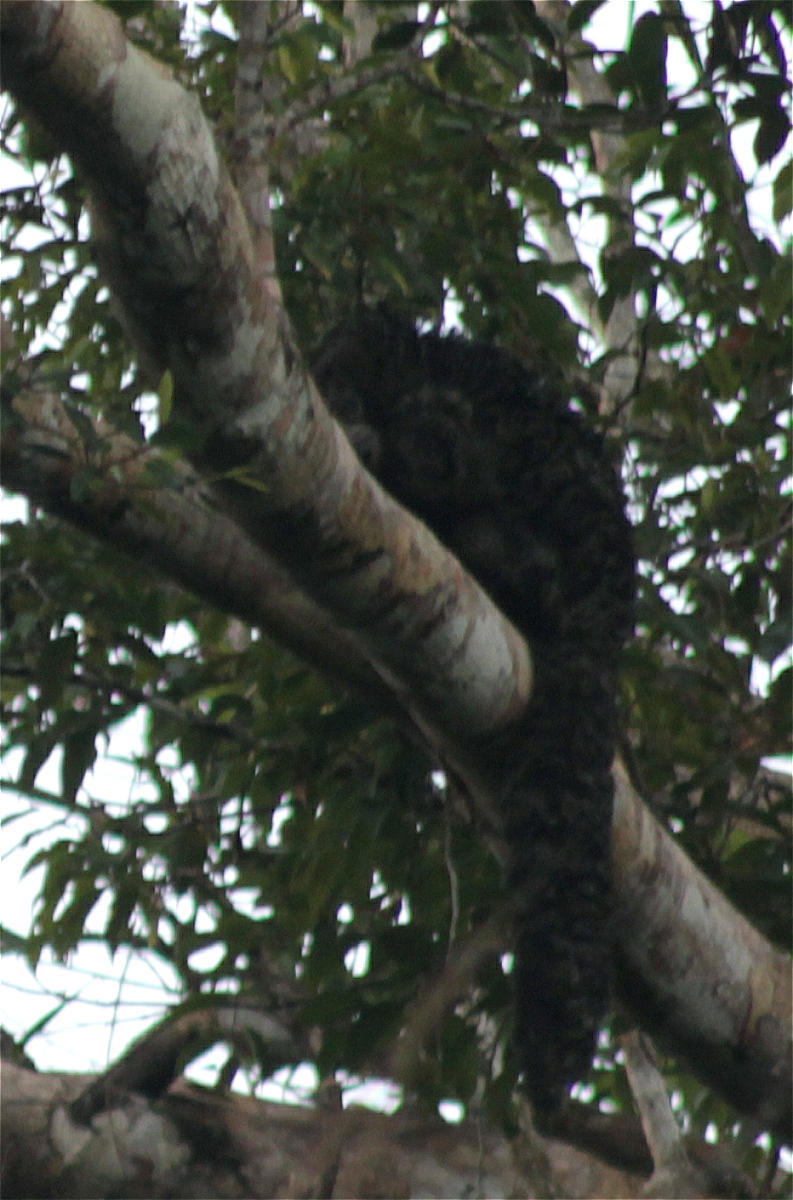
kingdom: Animalia
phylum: Chordata
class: Mammalia
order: Primates
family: Pitheciidae
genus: Pithecia
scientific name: Pithecia milleri
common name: Miller's saki
